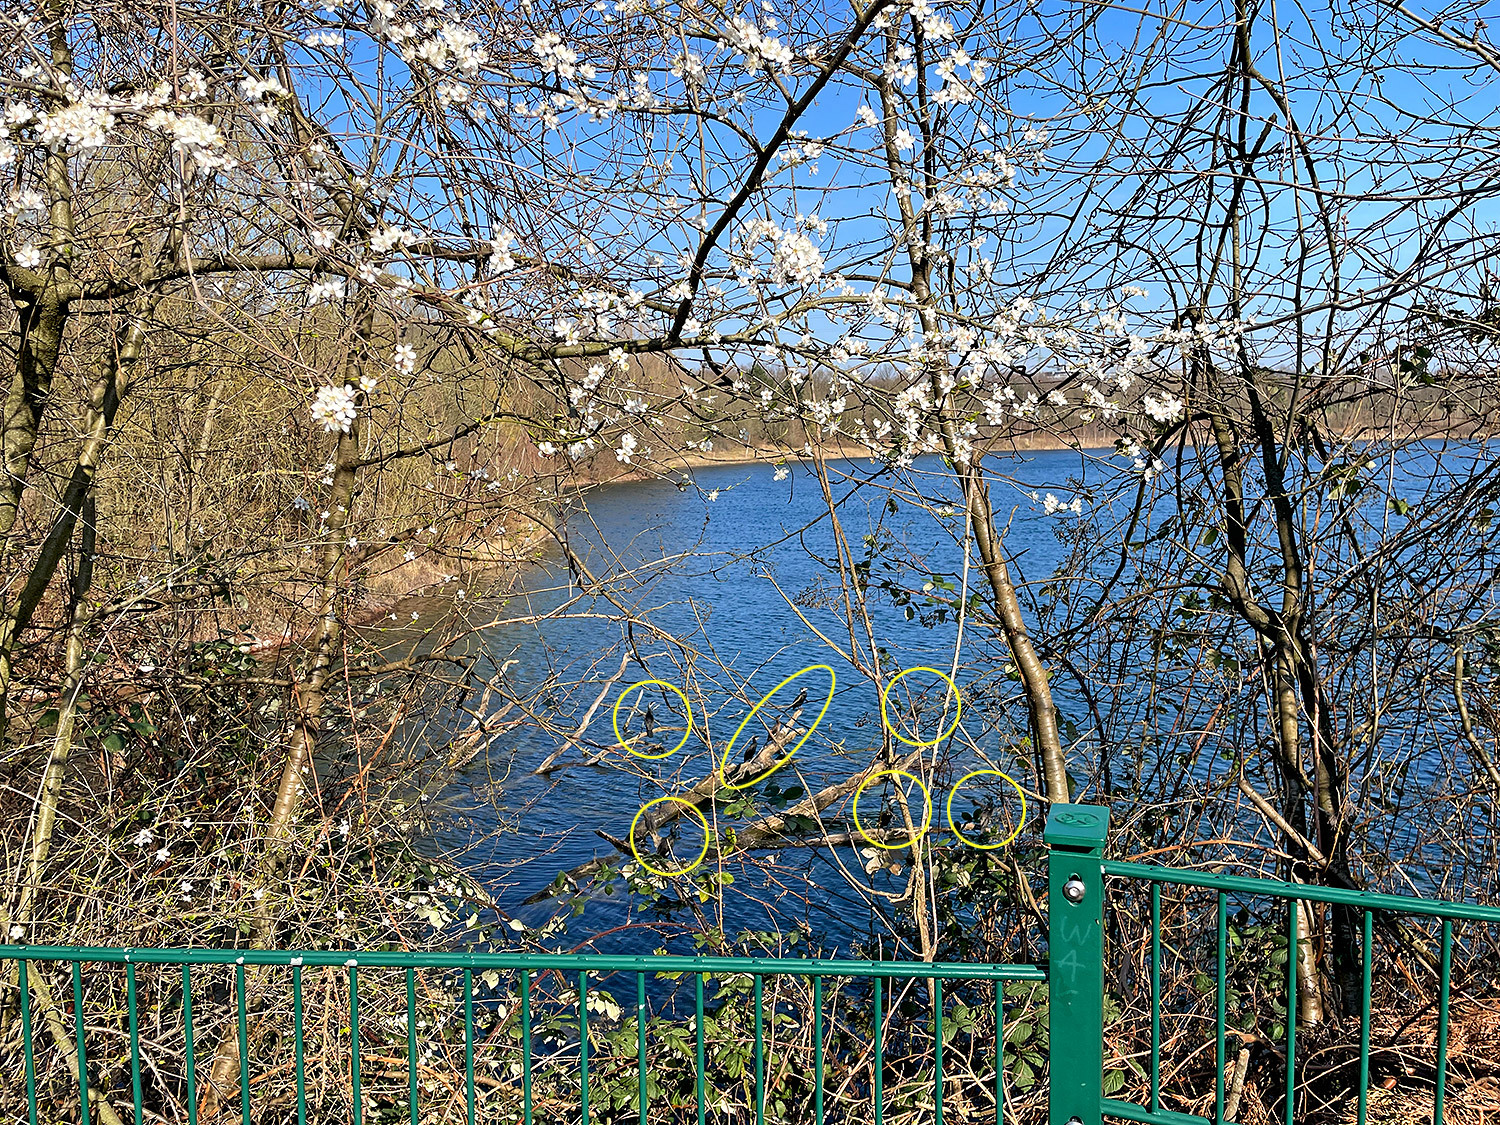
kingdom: Animalia
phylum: Chordata
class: Aves
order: Suliformes
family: Phalacrocoracidae
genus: Phalacrocorax
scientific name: Phalacrocorax carbo
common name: Great cormorant
